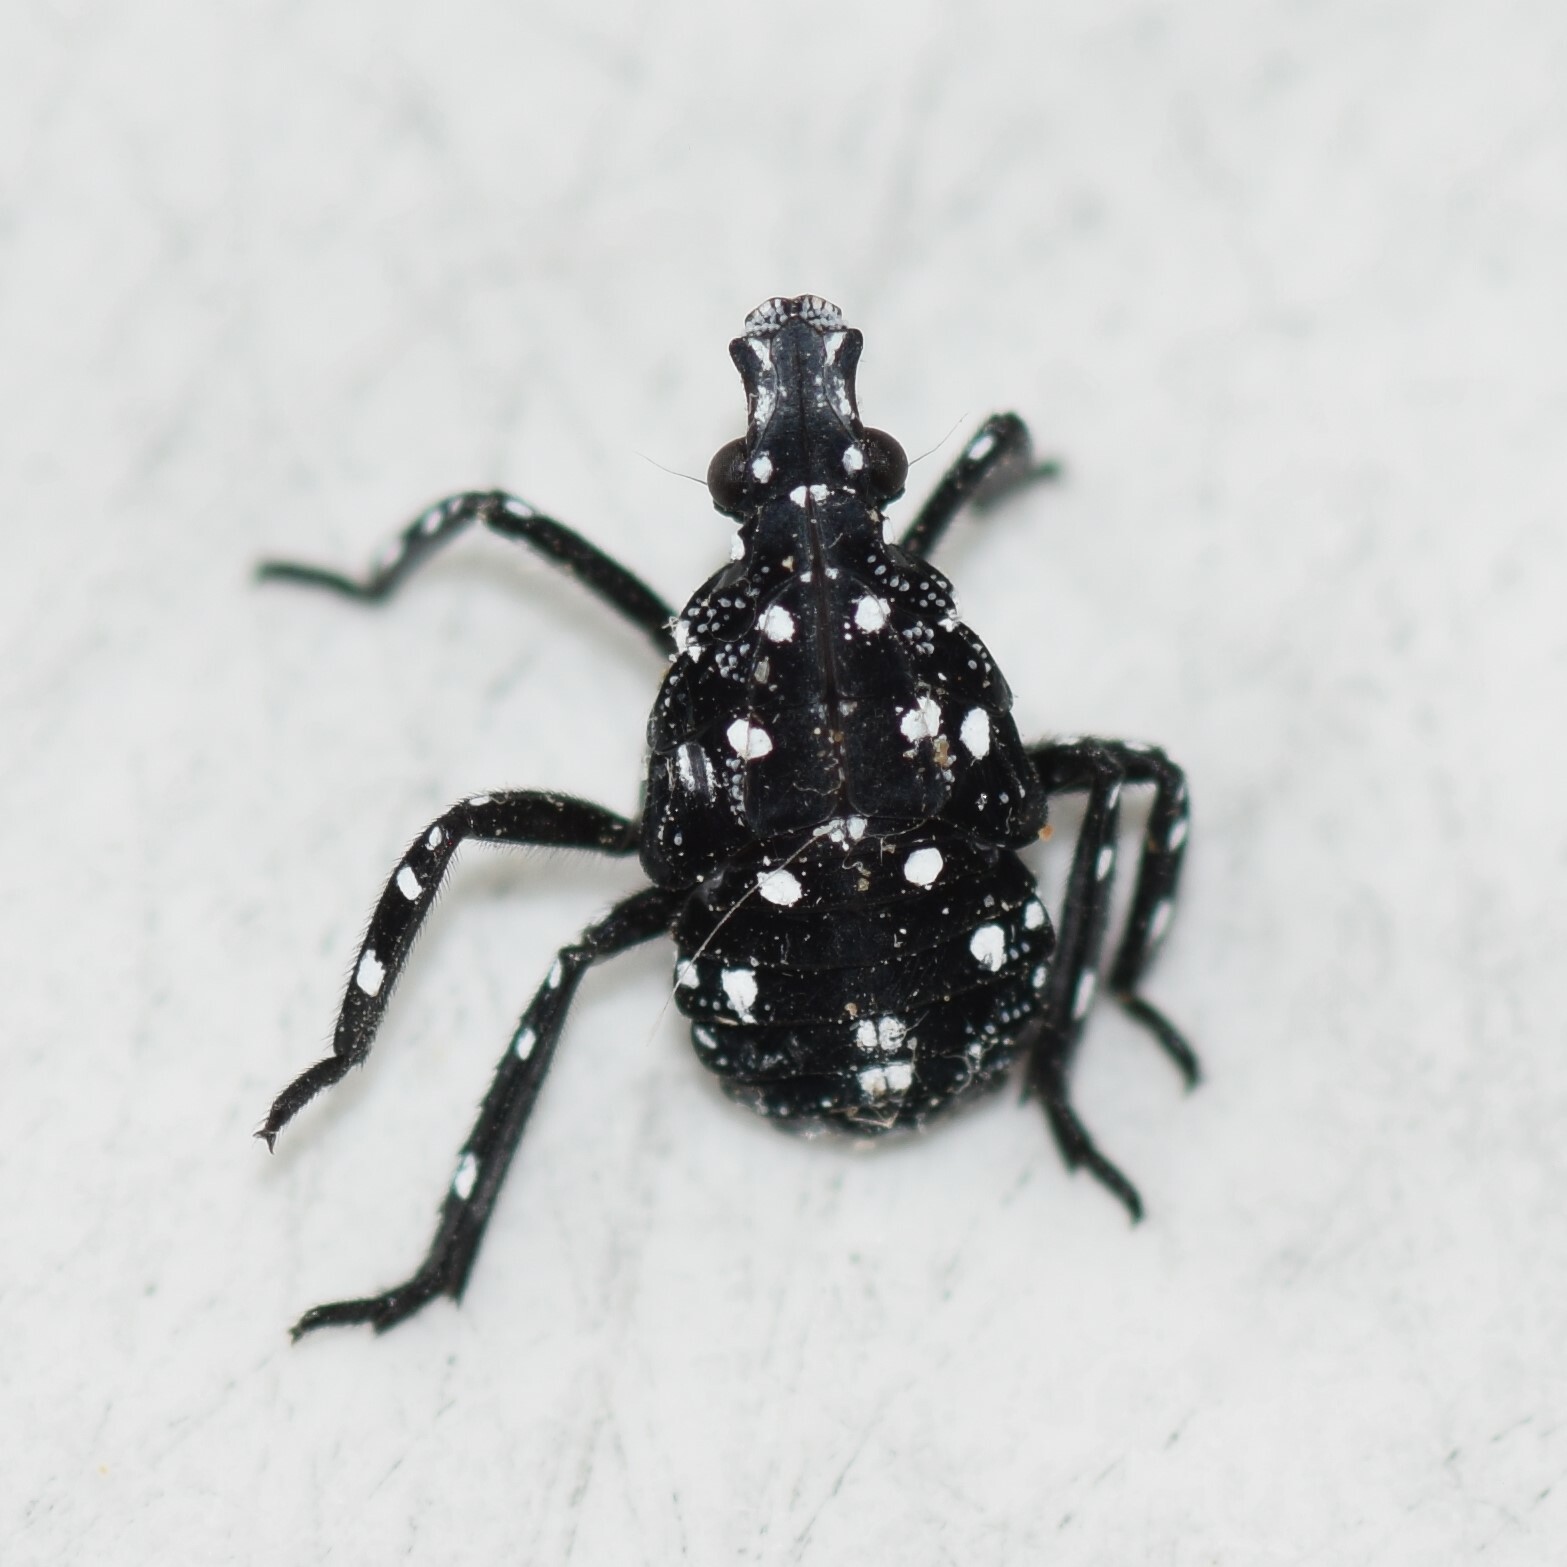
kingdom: Animalia
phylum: Arthropoda
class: Insecta
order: Hemiptera
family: Fulgoridae
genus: Lycorma
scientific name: Lycorma delicatula
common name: Spotted lanternfly
